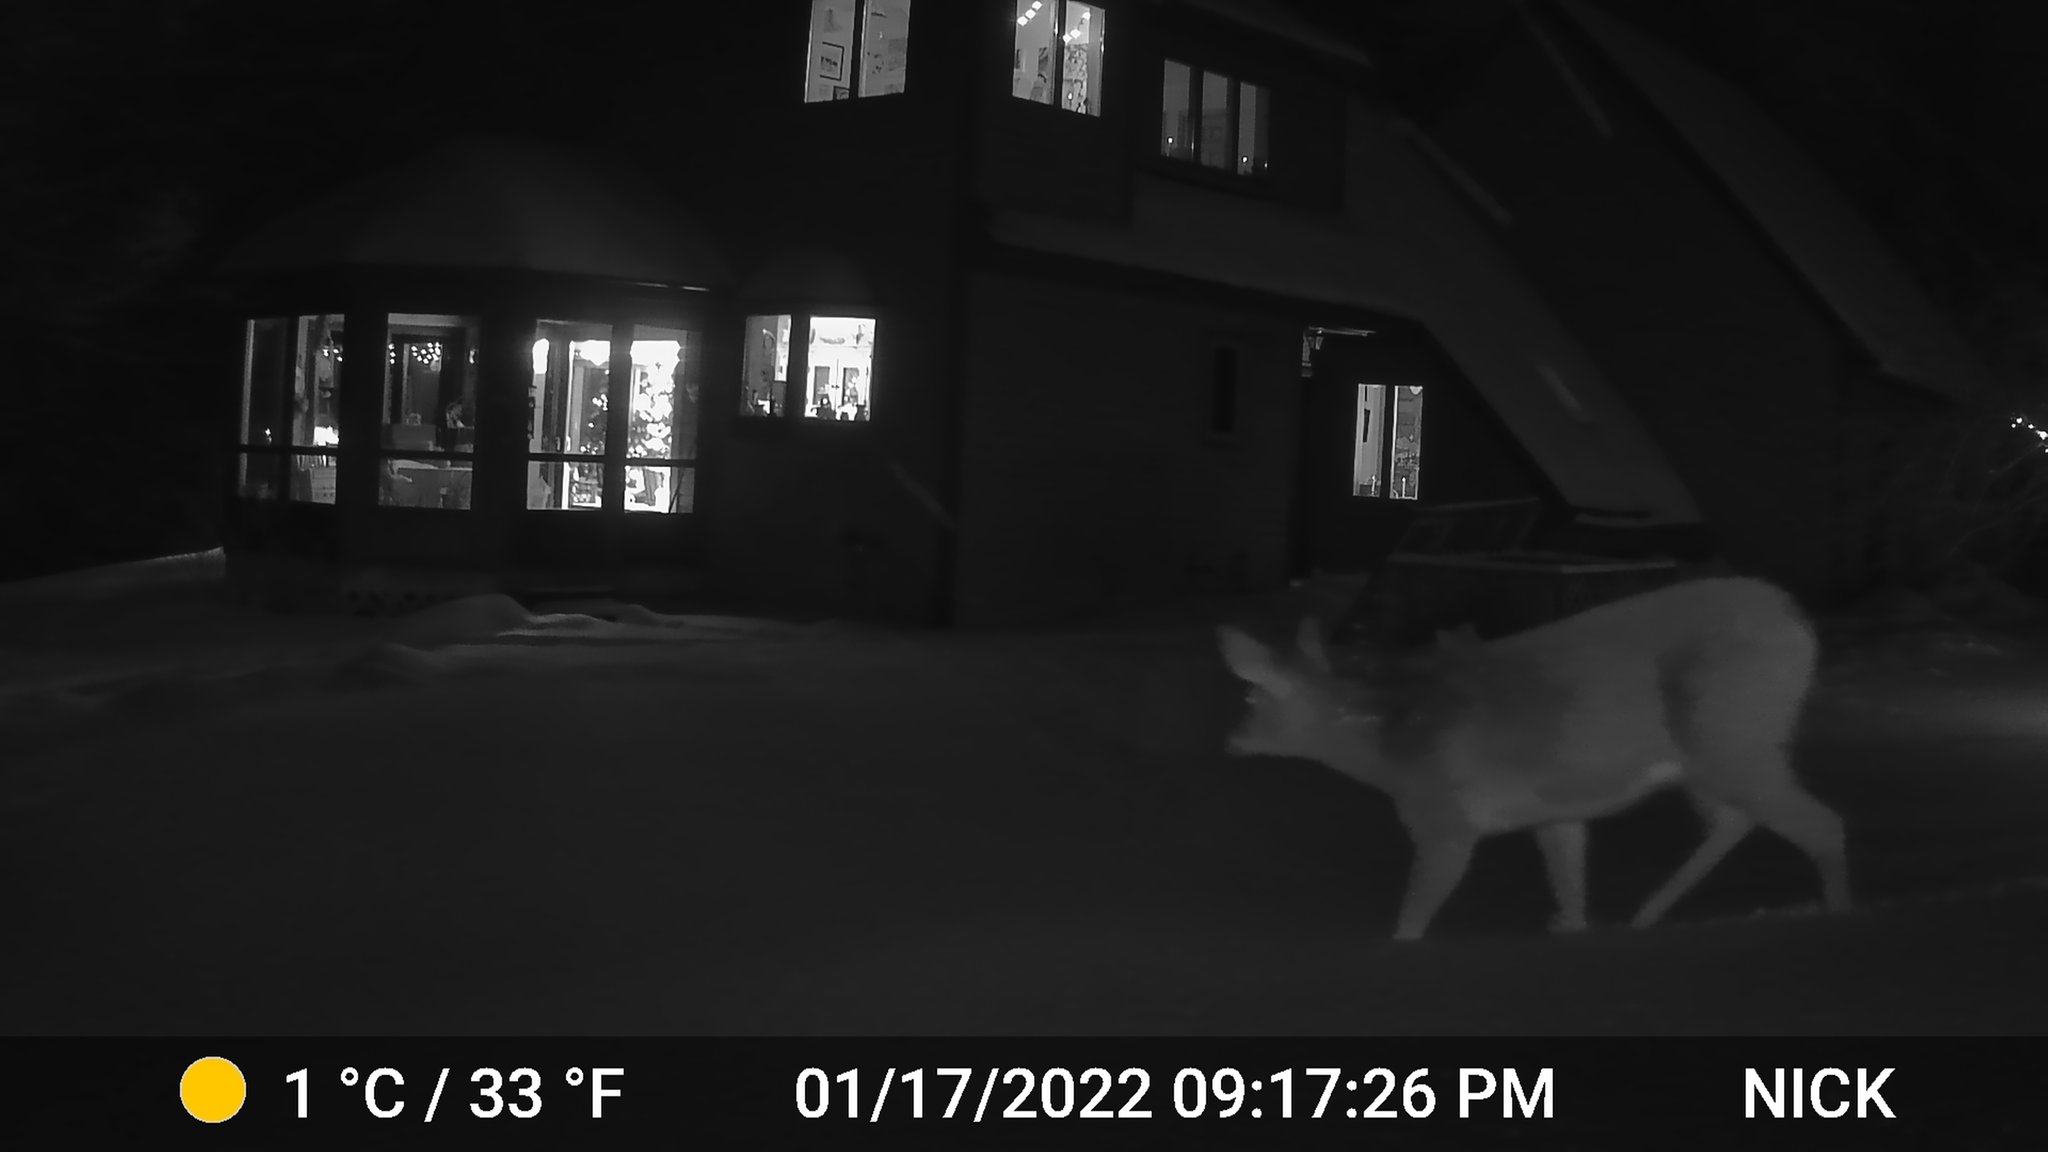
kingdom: Animalia
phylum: Chordata
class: Mammalia
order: Artiodactyla
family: Cervidae
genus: Odocoileus
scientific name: Odocoileus virginianus
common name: White-tailed deer
